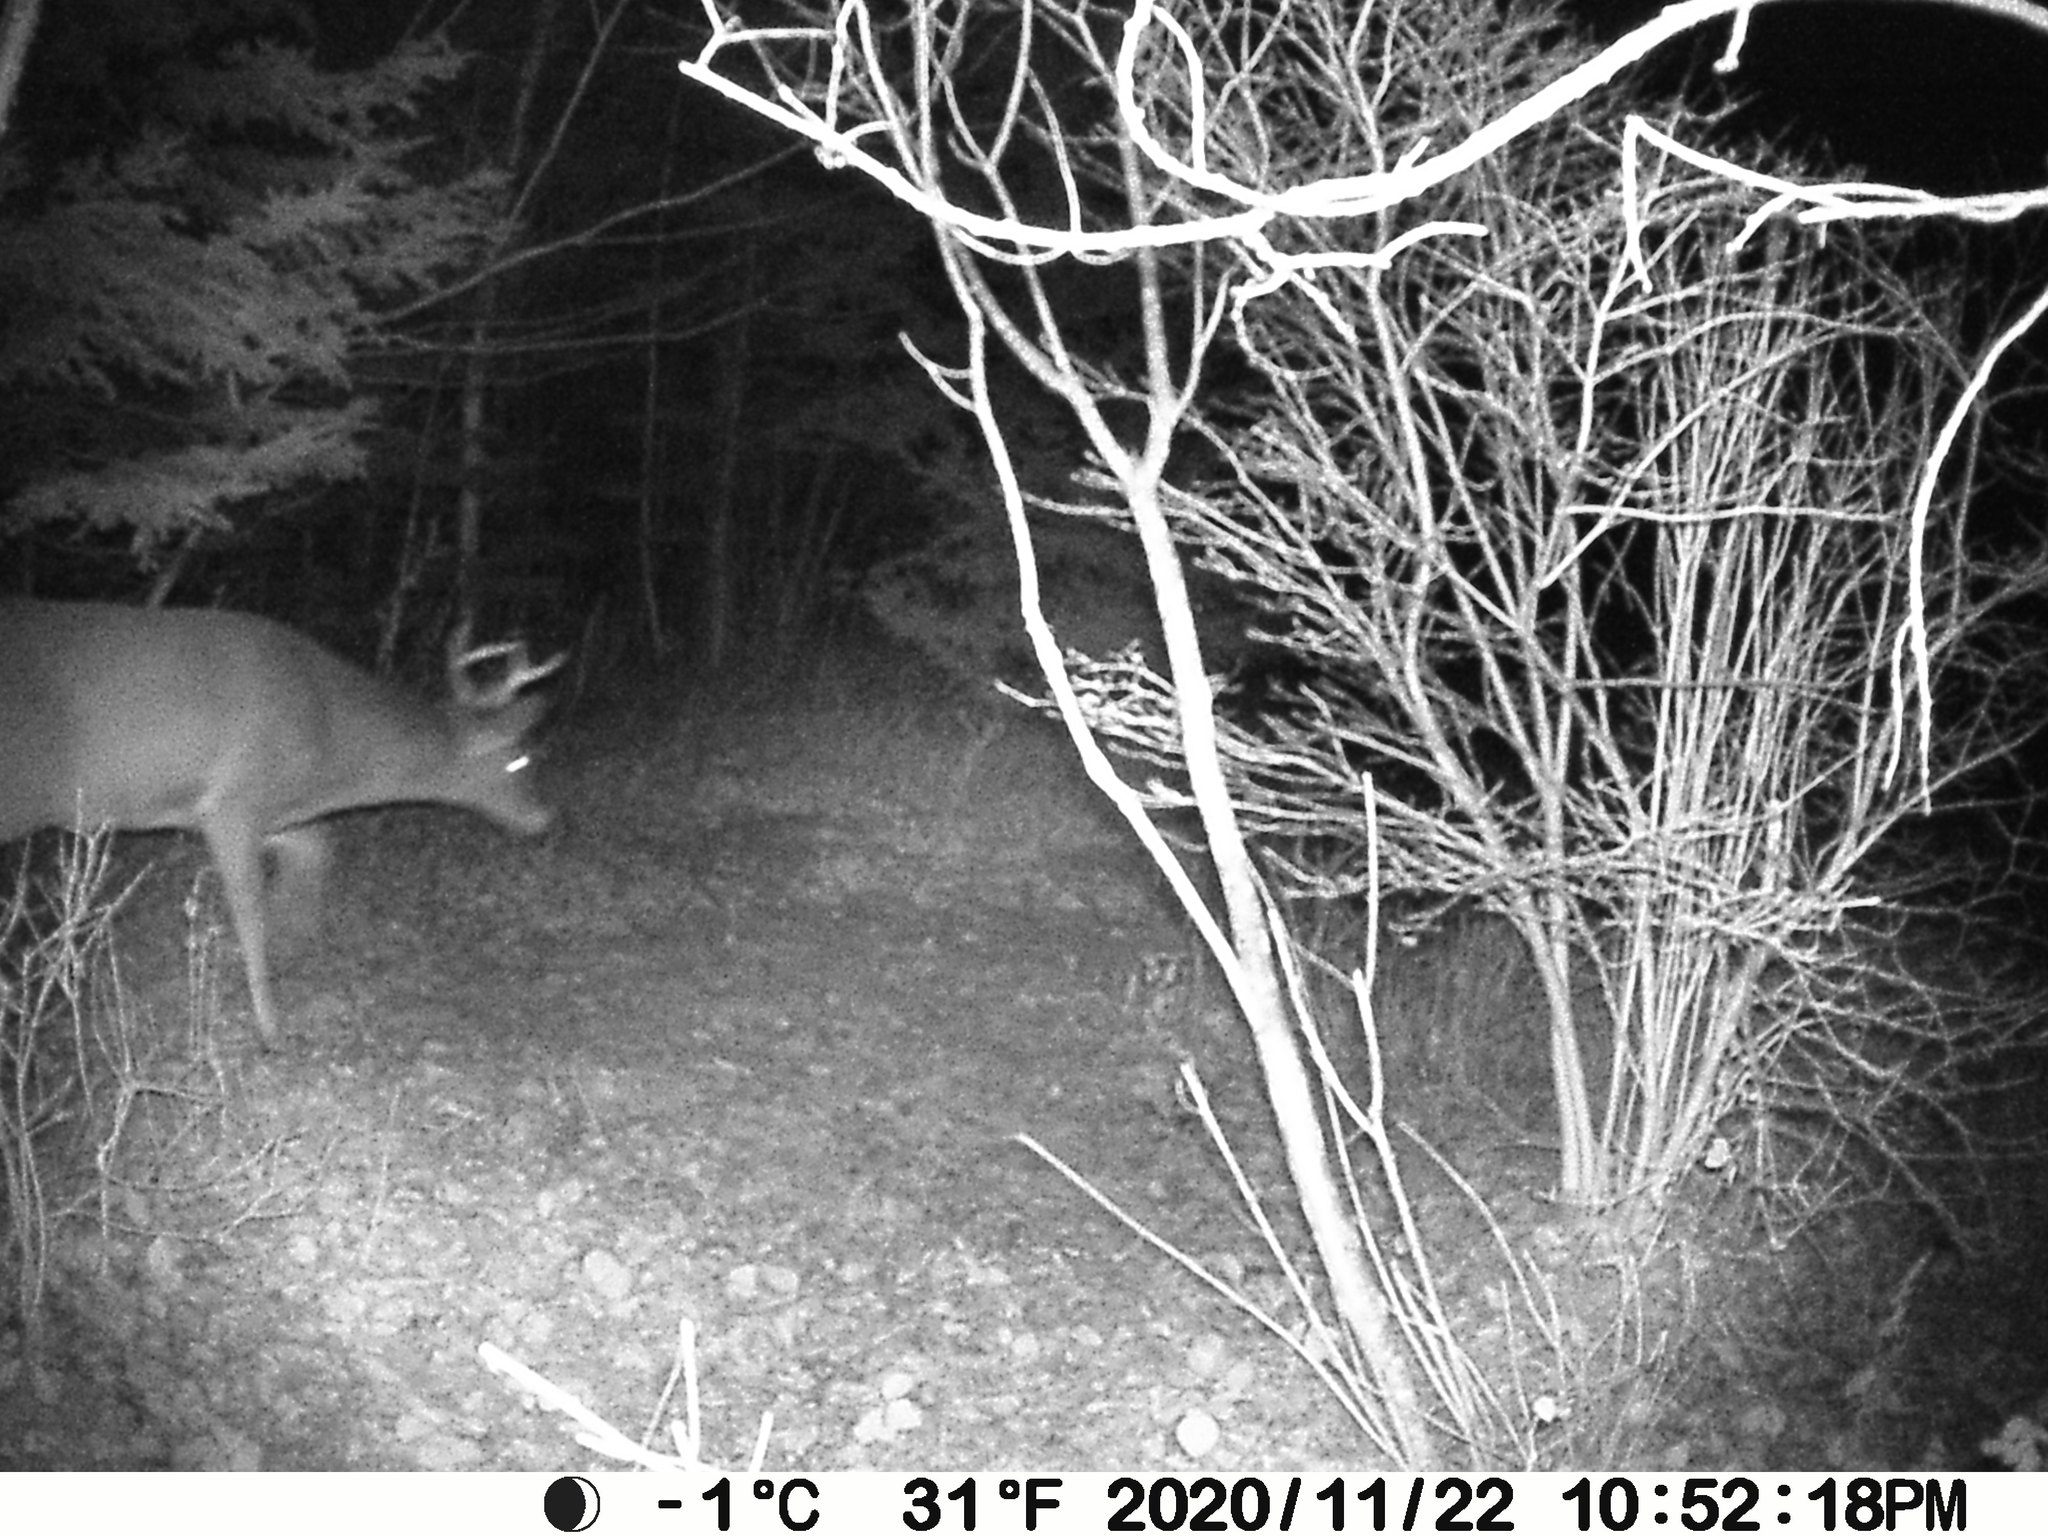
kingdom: Animalia
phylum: Chordata
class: Mammalia
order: Artiodactyla
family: Cervidae
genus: Odocoileus
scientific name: Odocoileus virginianus
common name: White-tailed deer
